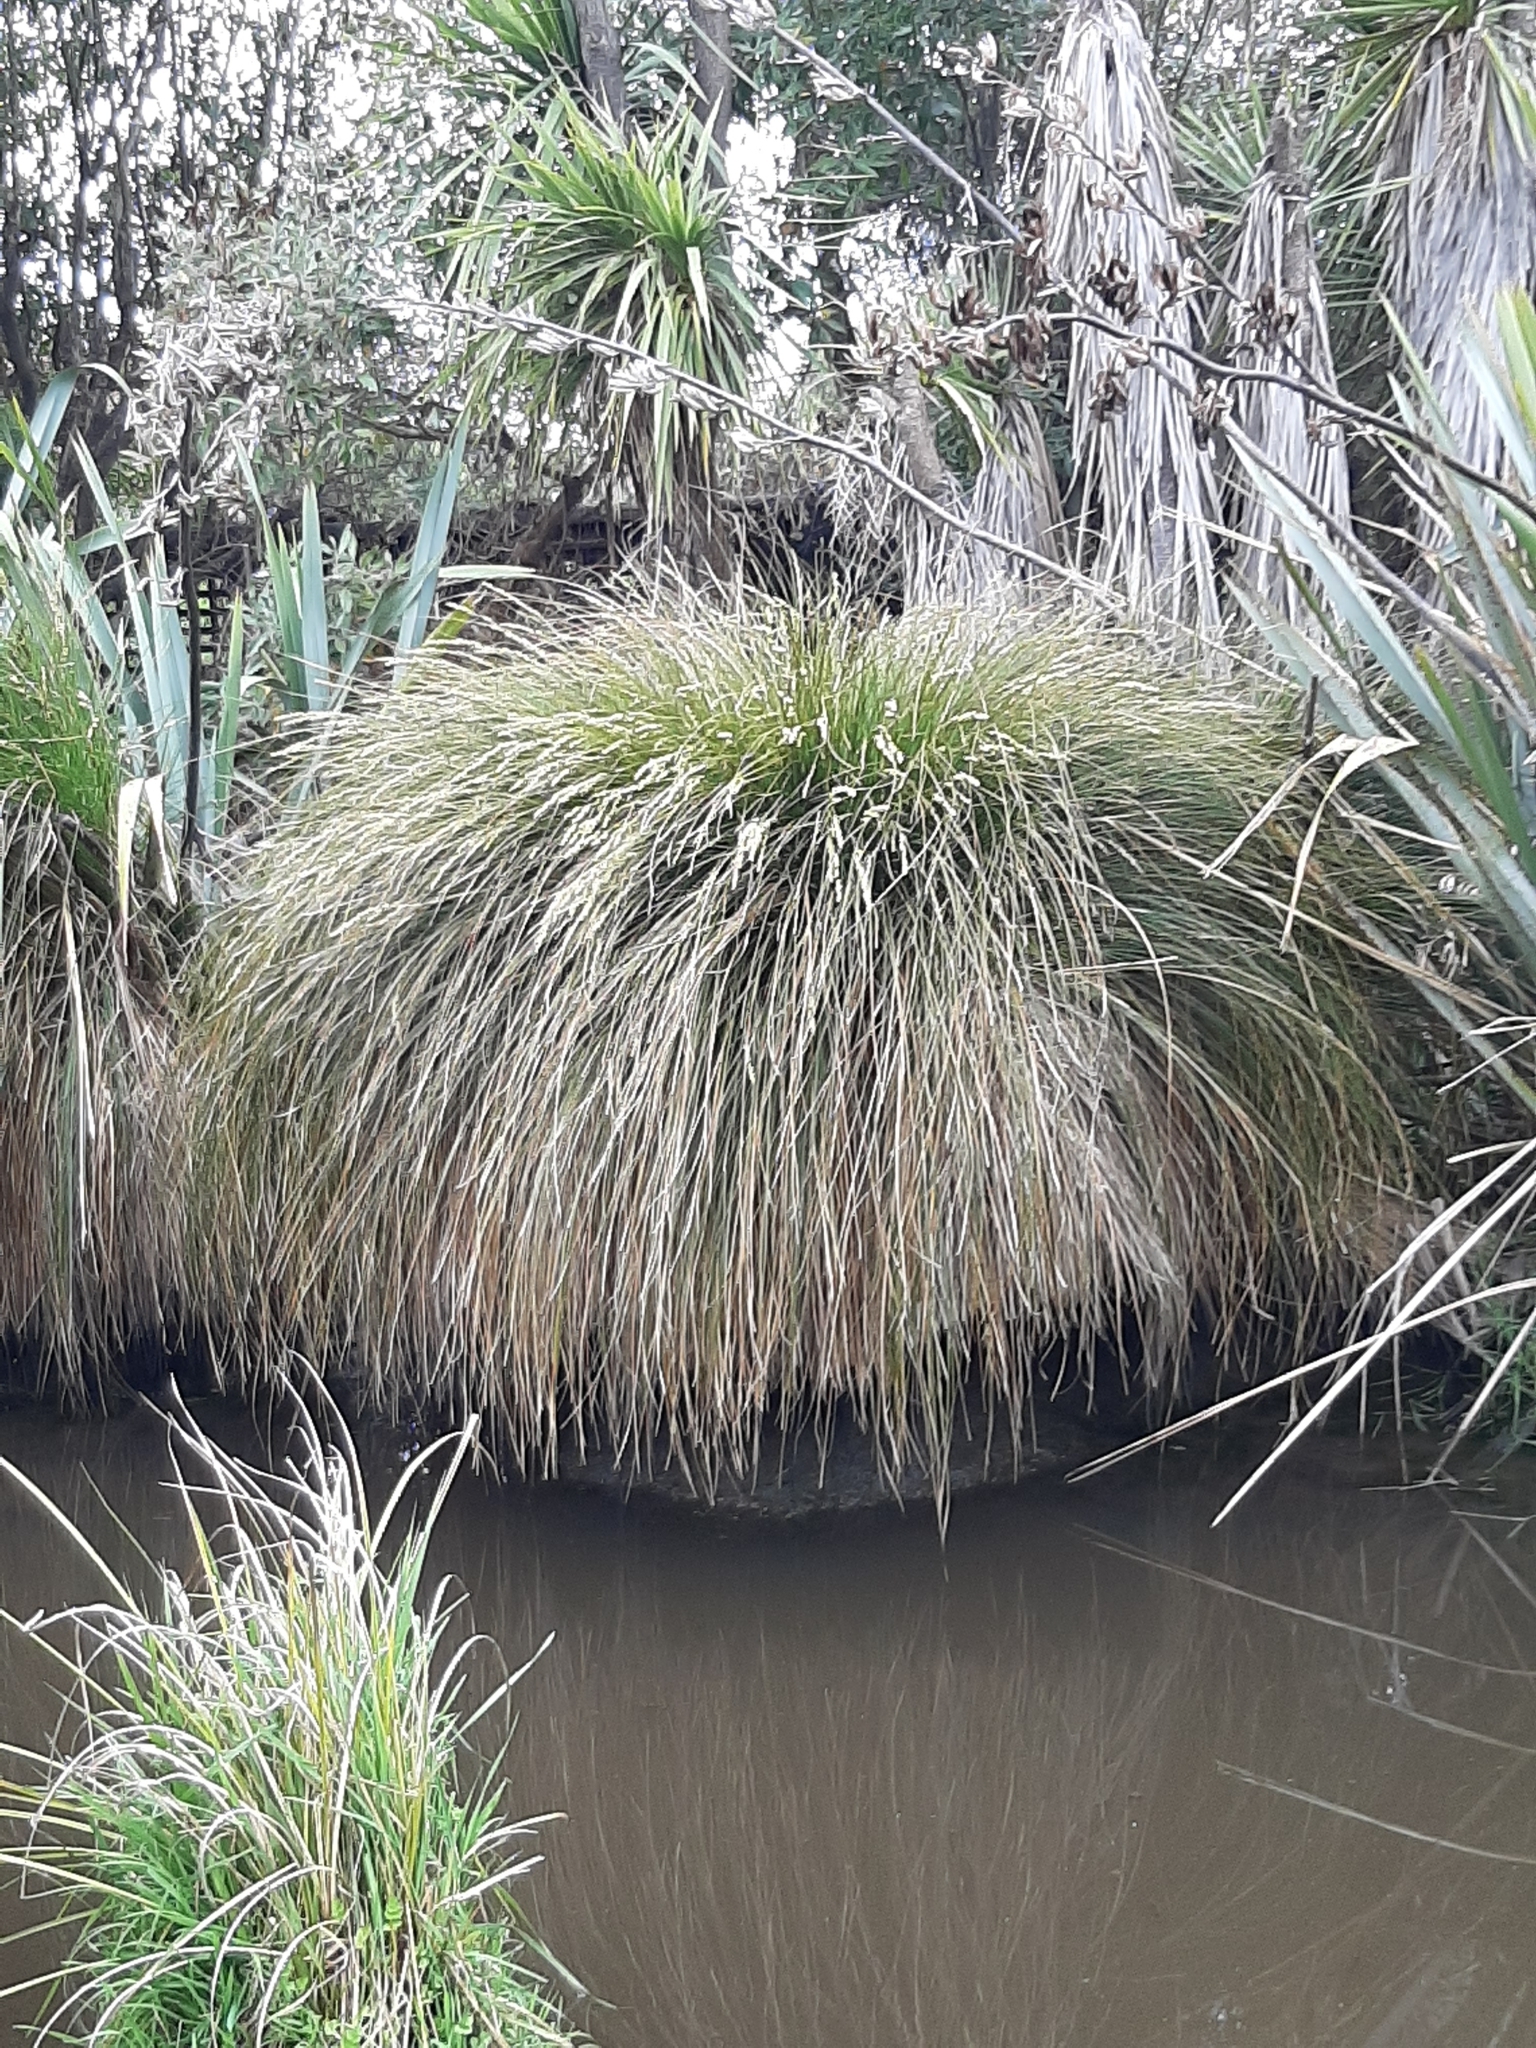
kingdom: Plantae
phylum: Tracheophyta
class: Liliopsida
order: Poales
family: Cyperaceae
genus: Carex
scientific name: Carex secta
